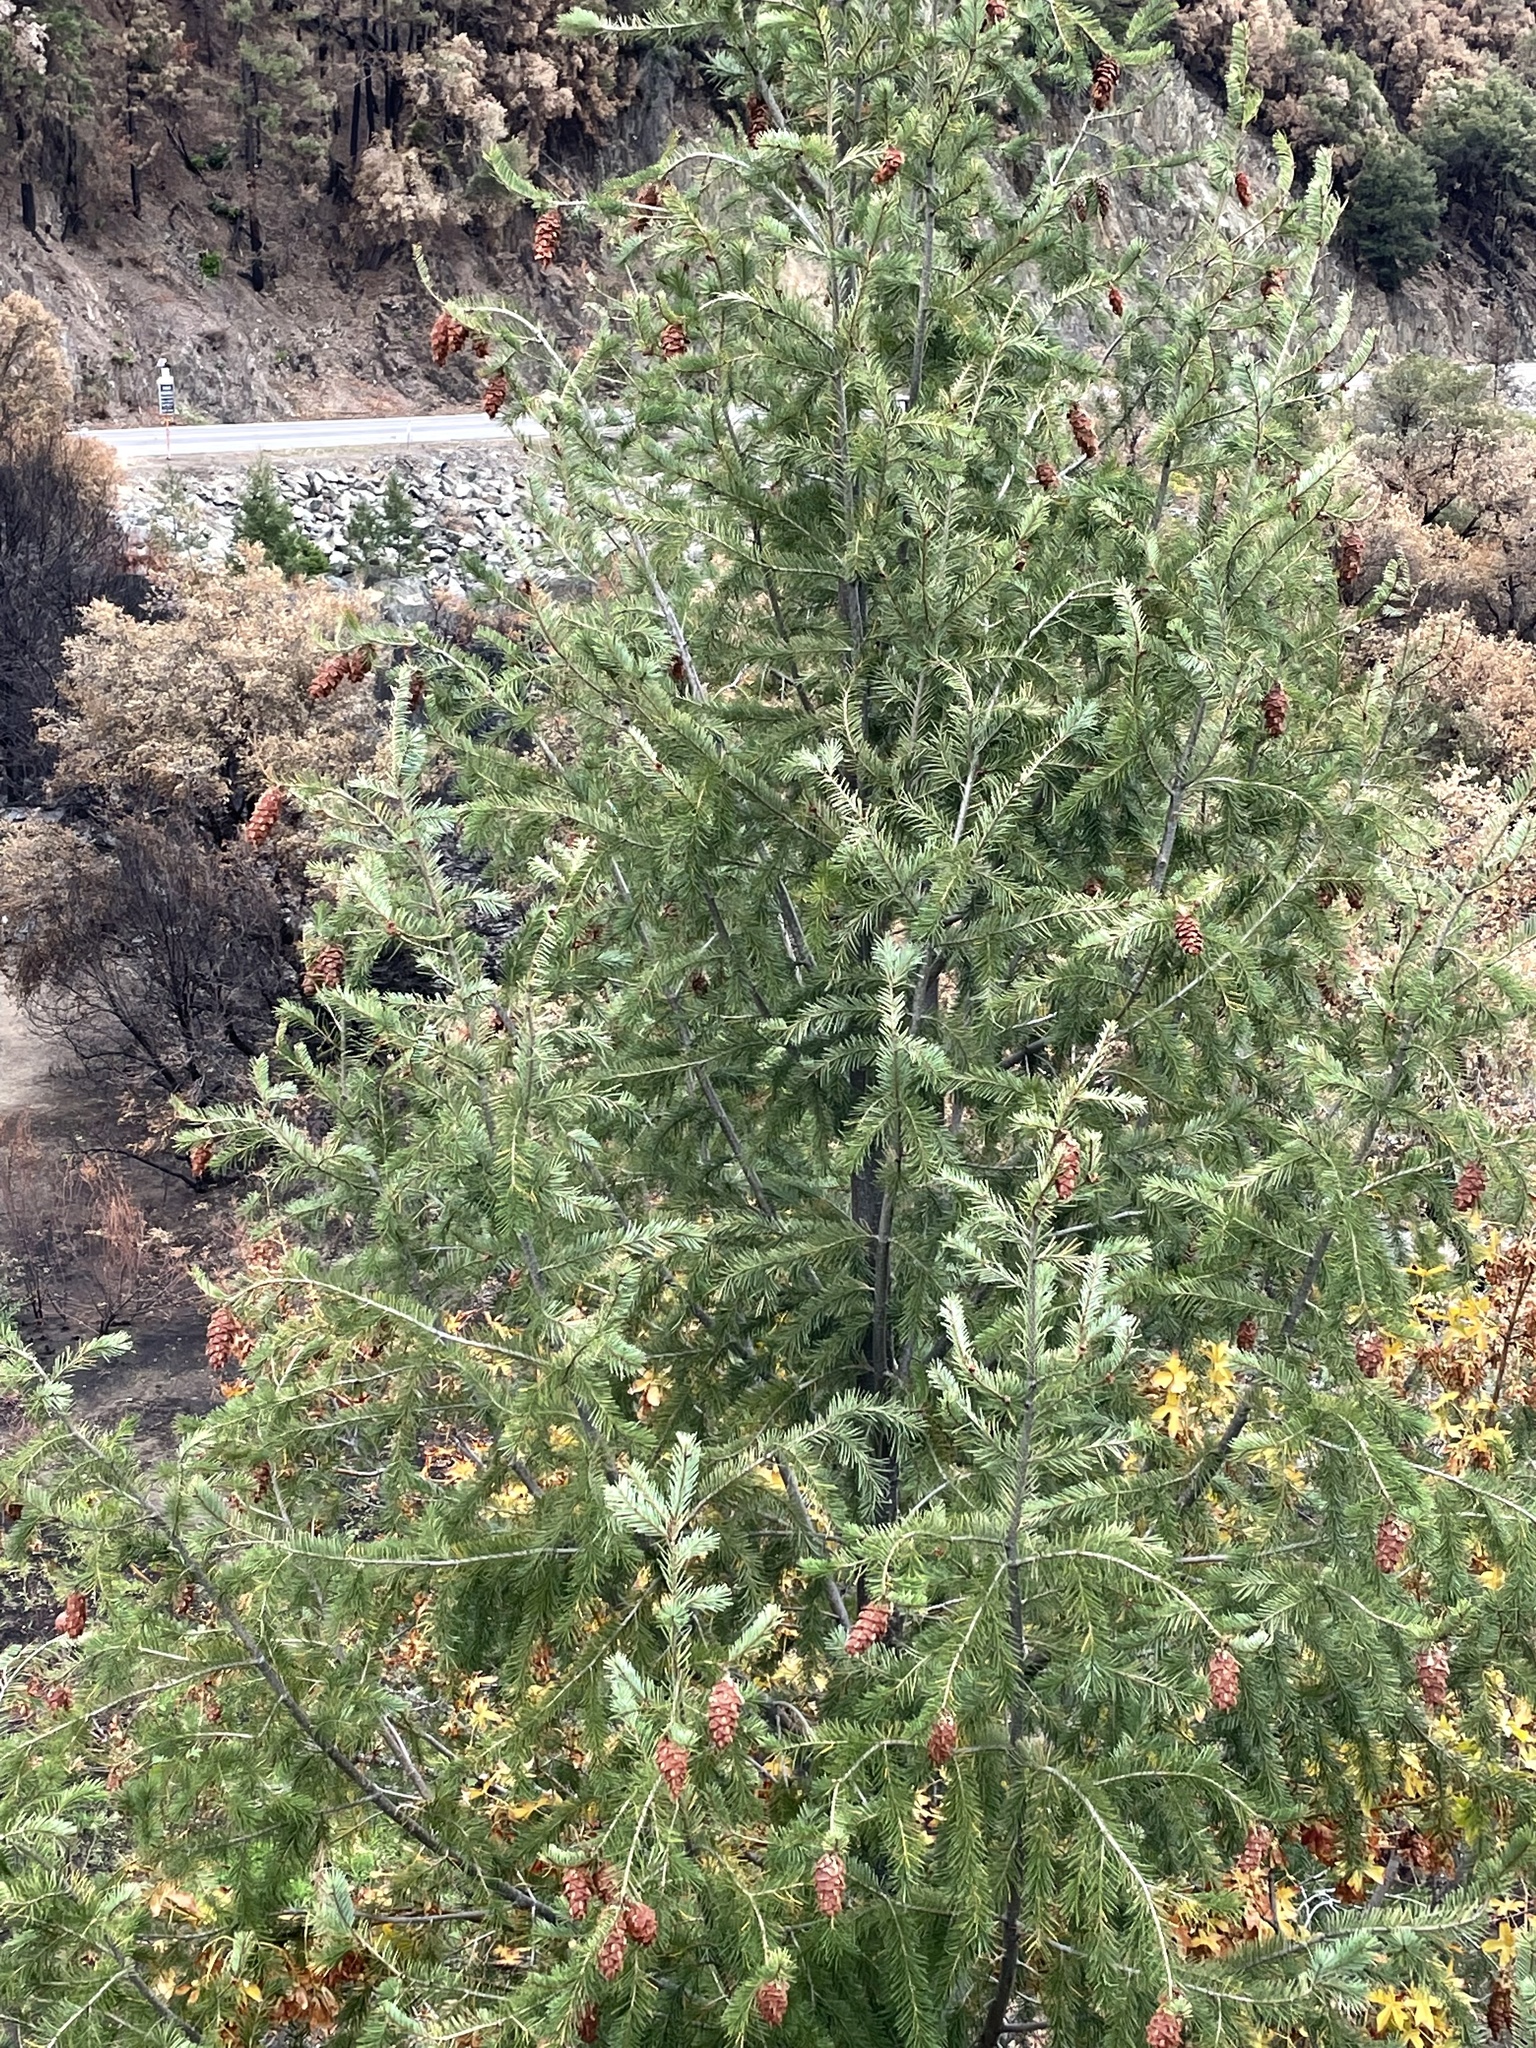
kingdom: Plantae
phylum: Tracheophyta
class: Pinopsida
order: Pinales
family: Pinaceae
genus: Pseudotsuga
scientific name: Pseudotsuga menziesii
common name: Douglas fir
